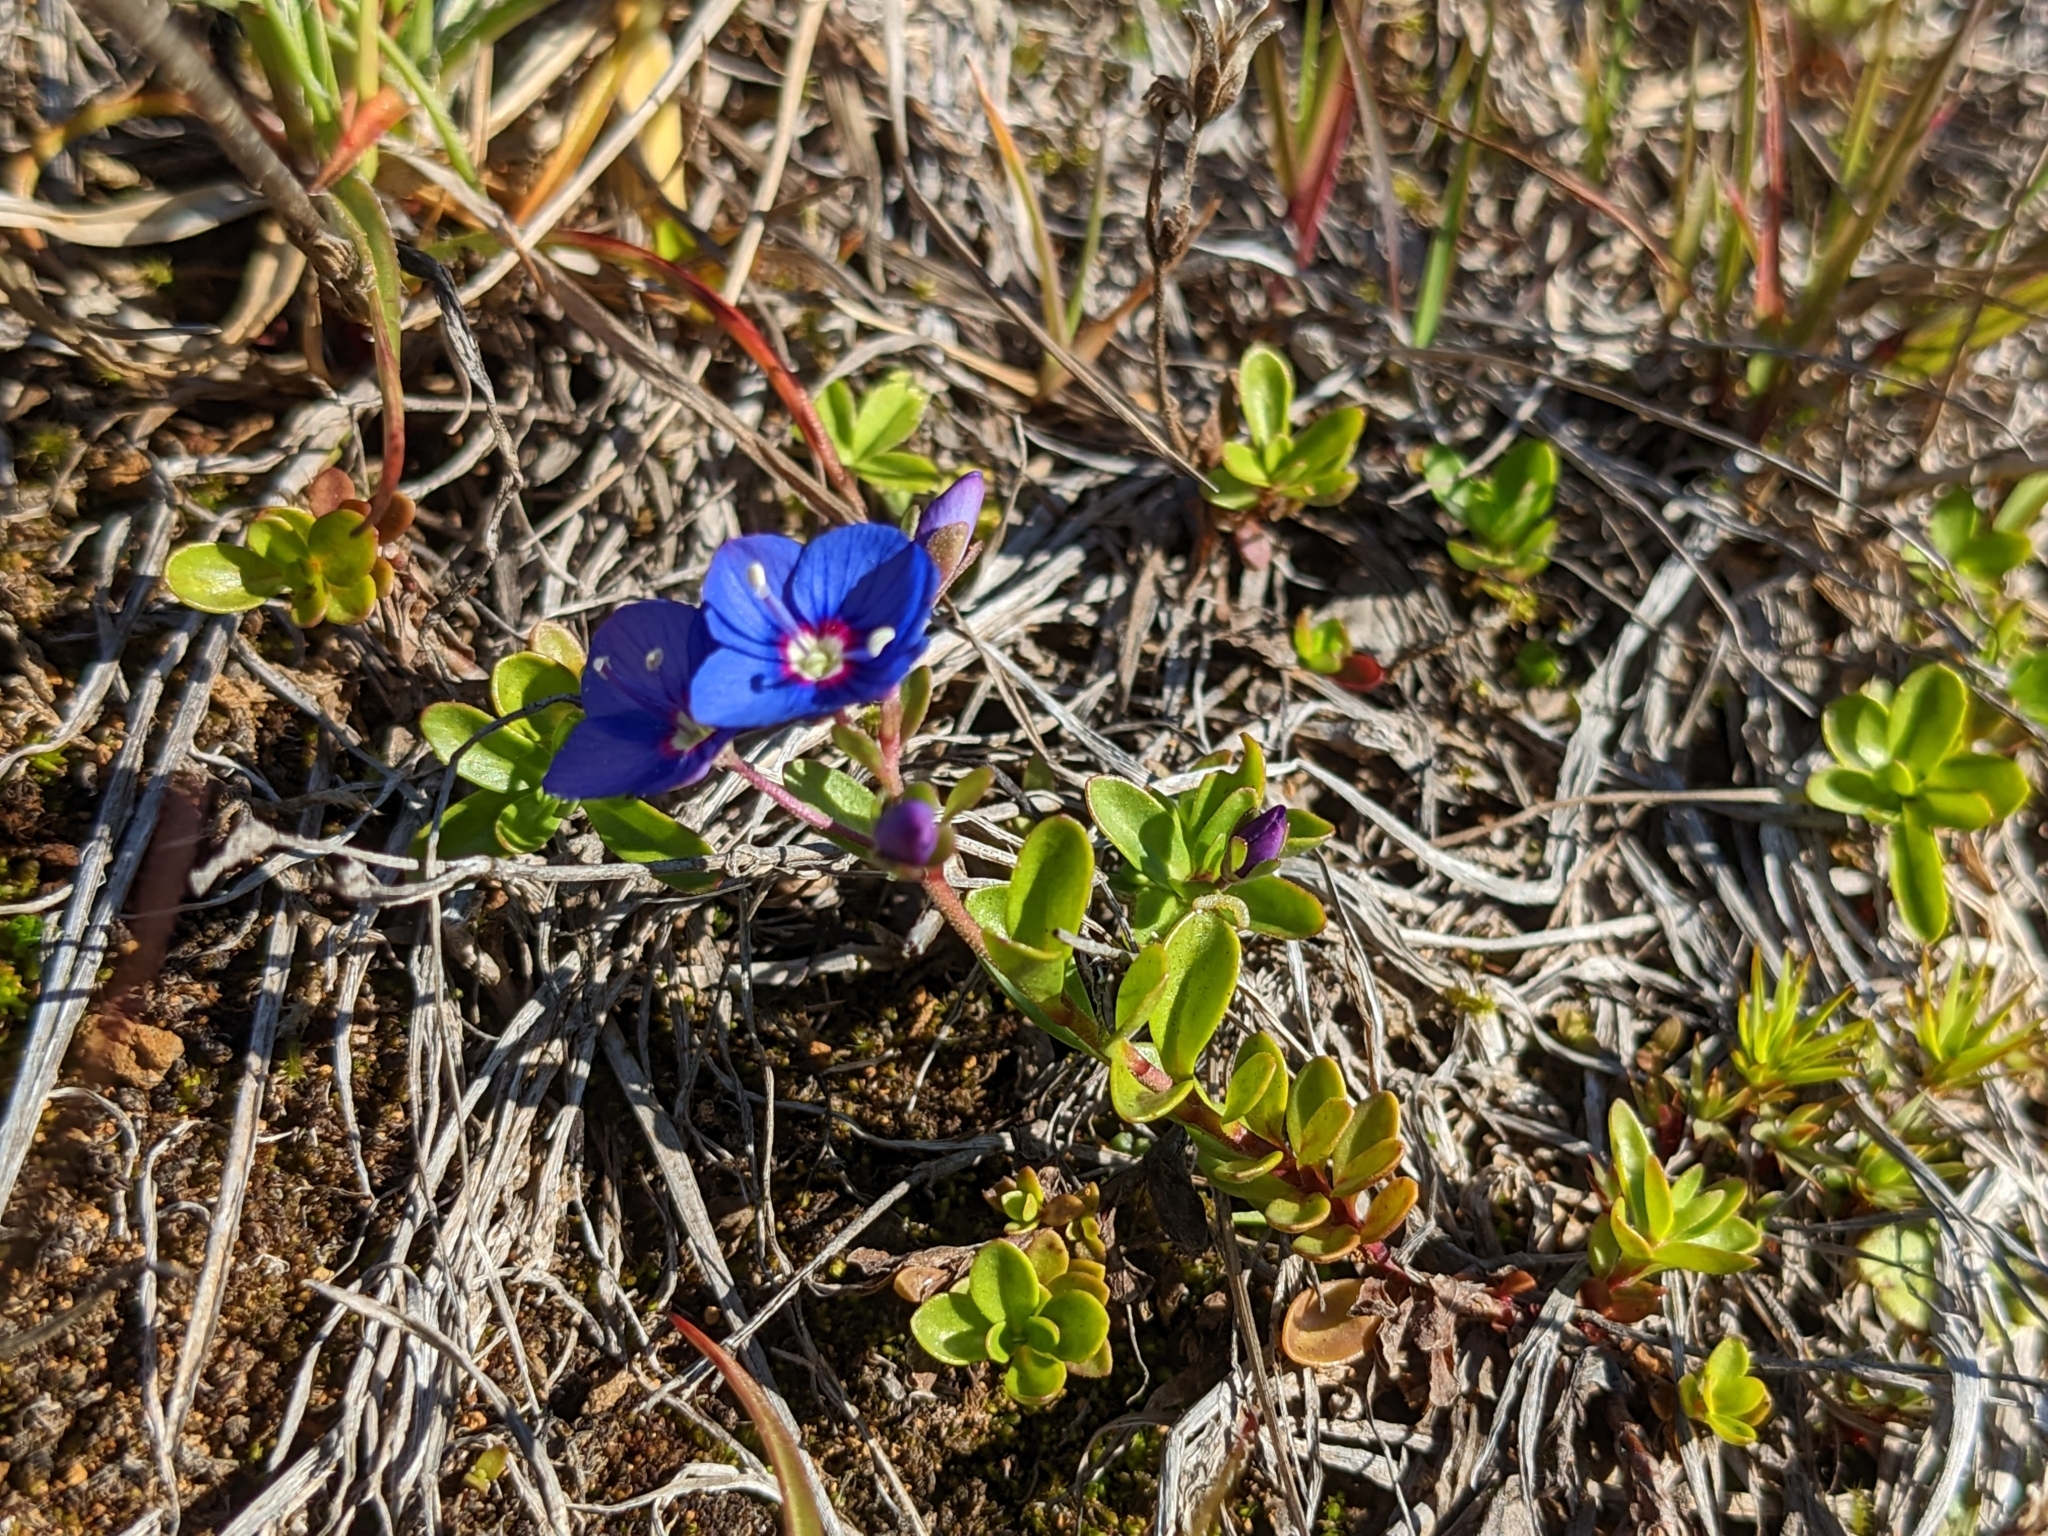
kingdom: Plantae
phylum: Tracheophyta
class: Magnoliopsida
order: Lamiales
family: Plantaginaceae
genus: Veronica
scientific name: Veronica fruticans
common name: Rock speedwell
